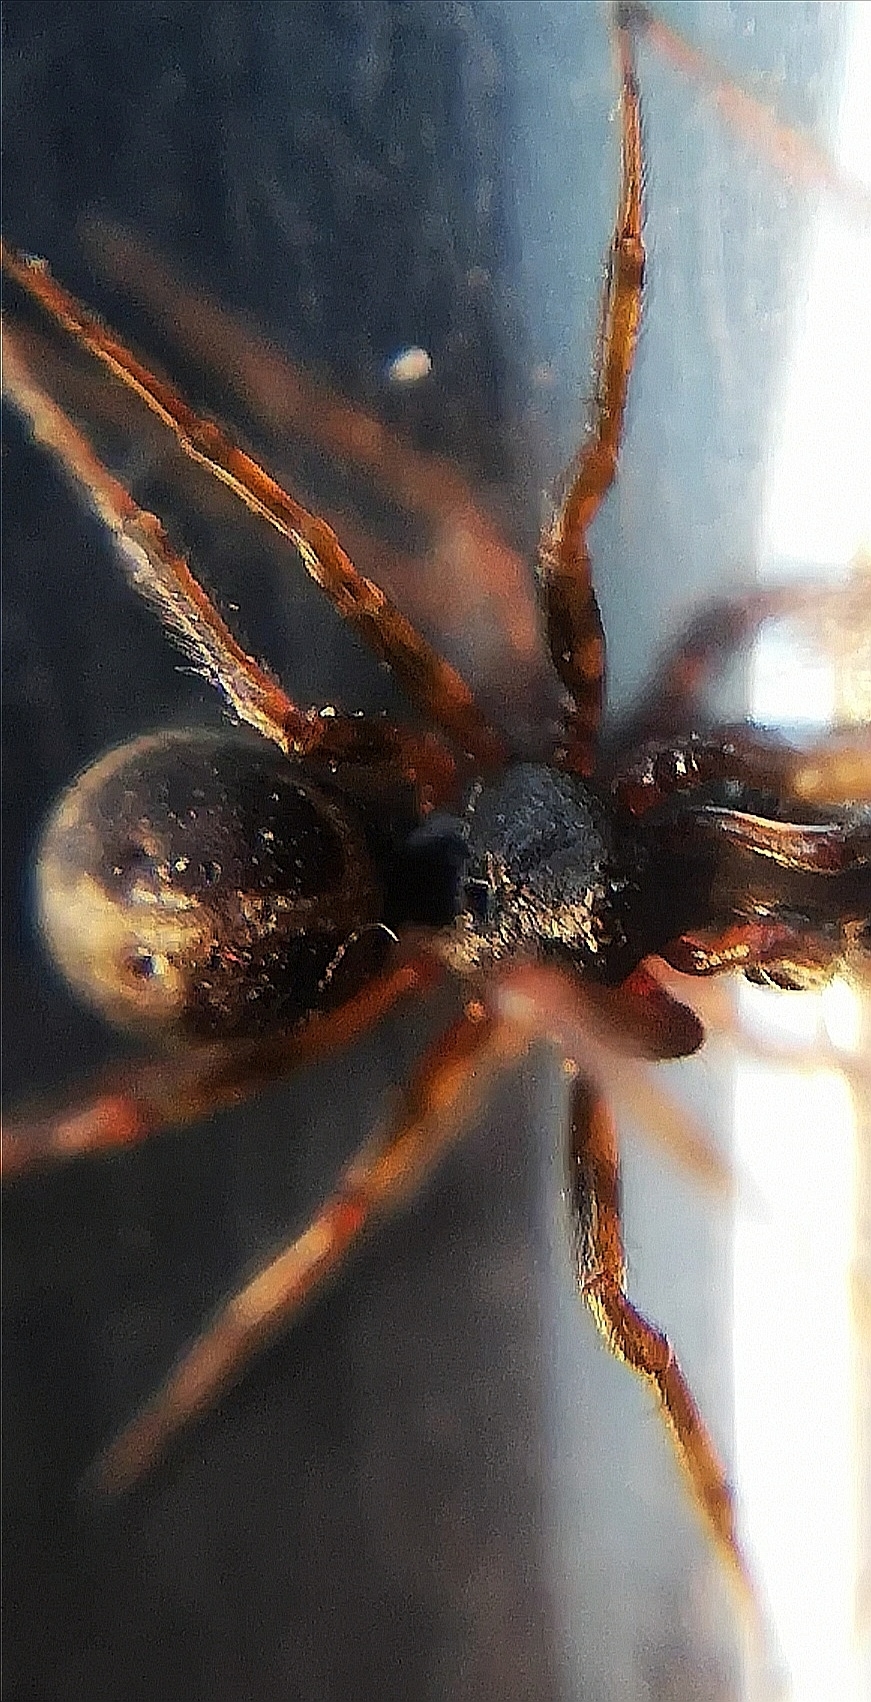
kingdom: Animalia
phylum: Arthropoda
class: Arachnida
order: Araneae
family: Theridiidae
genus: Steatoda
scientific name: Steatoda bipunctata
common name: False widow
